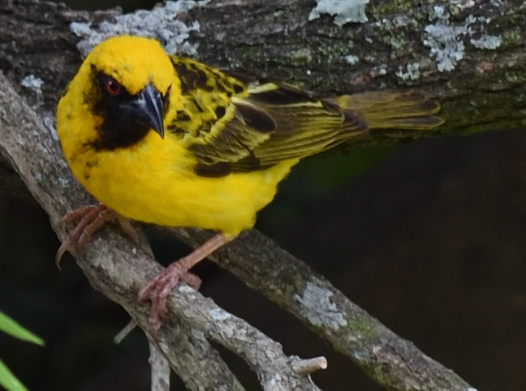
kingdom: Animalia
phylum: Chordata
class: Aves
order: Passeriformes
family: Ploceidae
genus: Ploceus
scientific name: Ploceus cucullatus
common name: Village weaver
